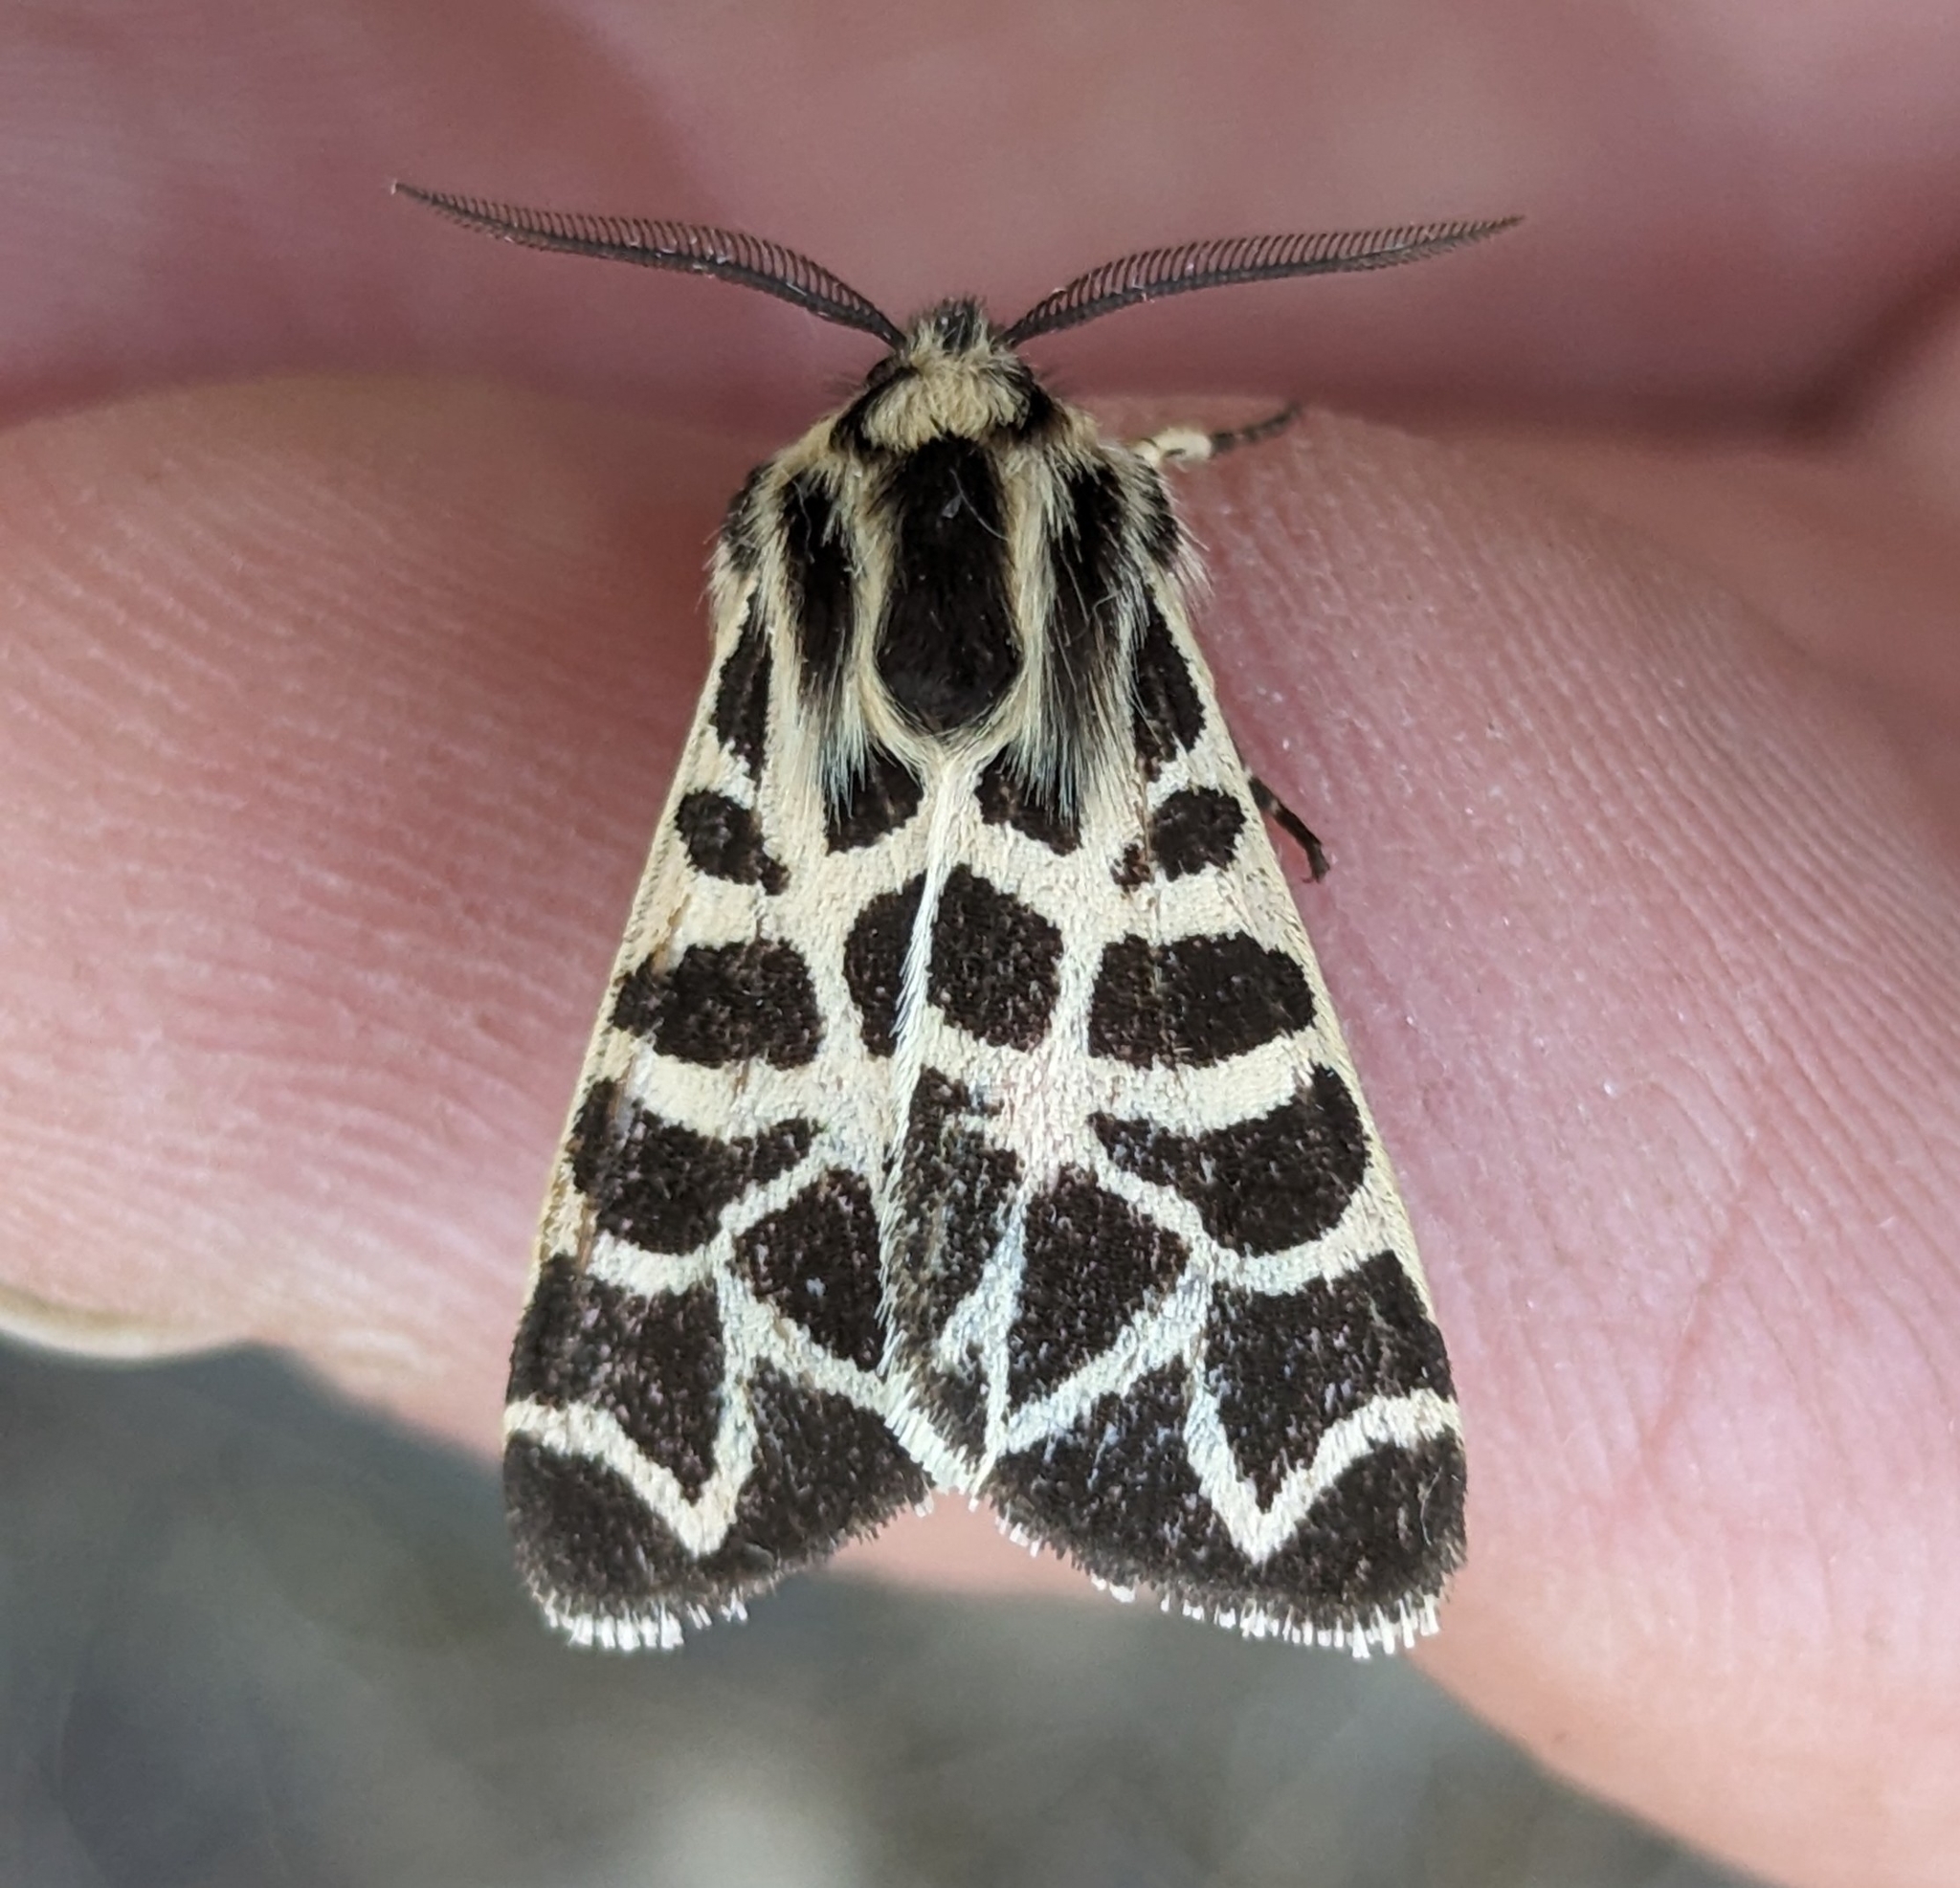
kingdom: Animalia
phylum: Arthropoda
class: Insecta
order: Lepidoptera
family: Erebidae
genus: Apantesis
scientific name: Apantesis
